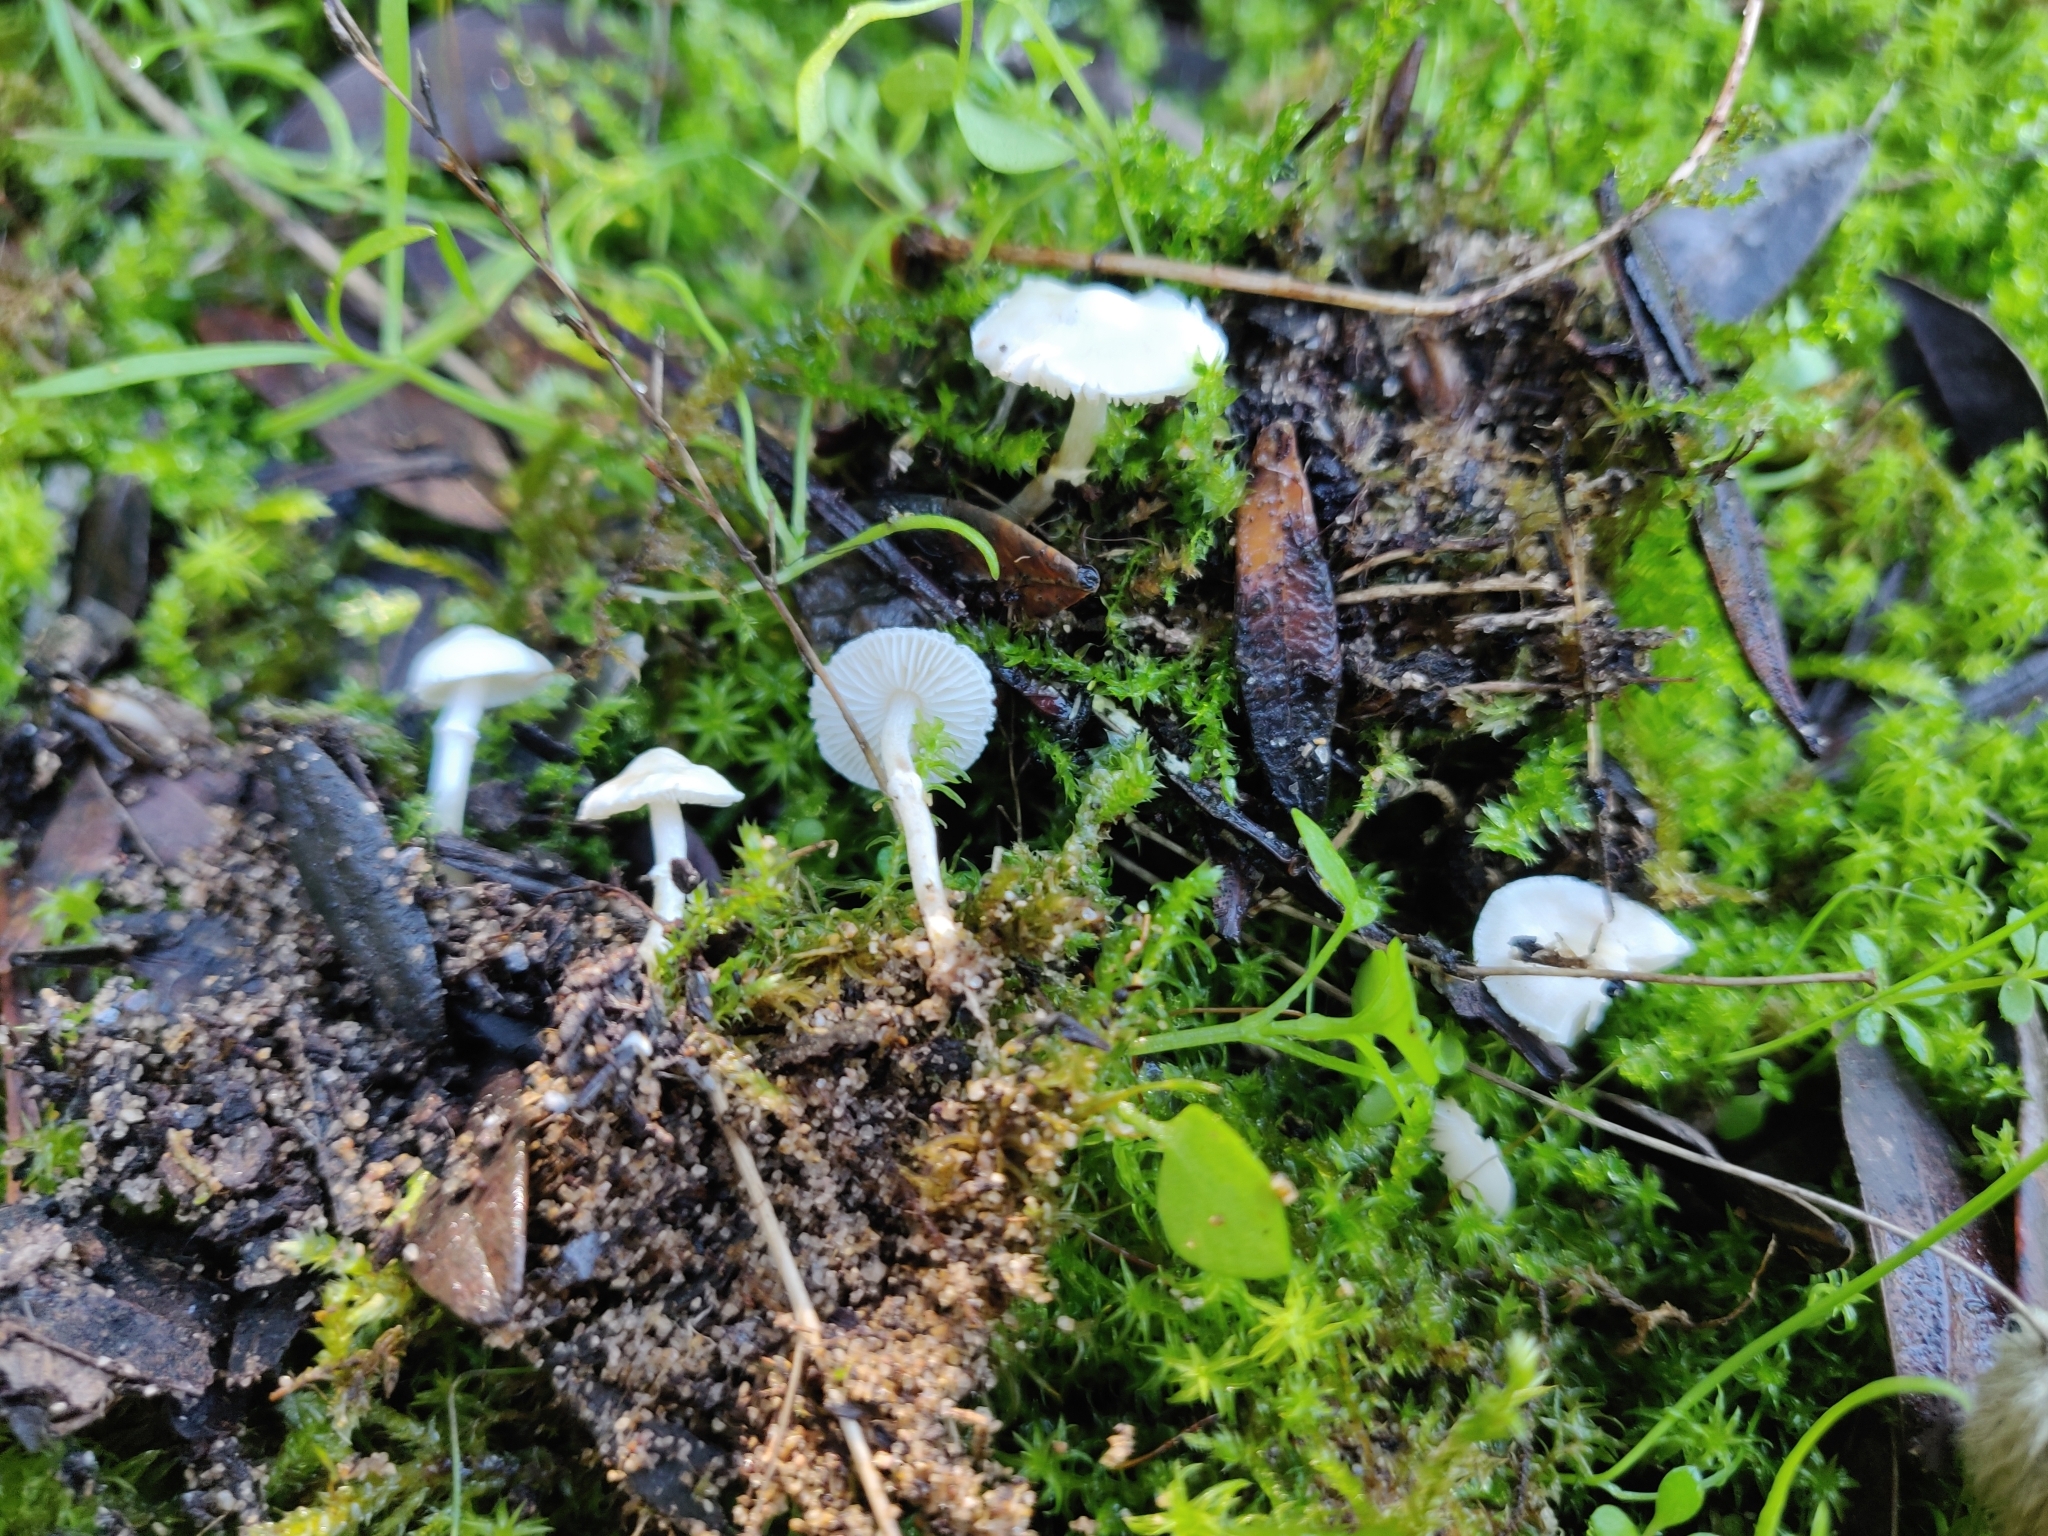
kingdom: Fungi
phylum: Basidiomycota
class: Agaricomycetes
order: Agaricales
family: Agaricaceae
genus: Leucoagaricus
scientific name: Leucoagaricus cygneoaffinis
